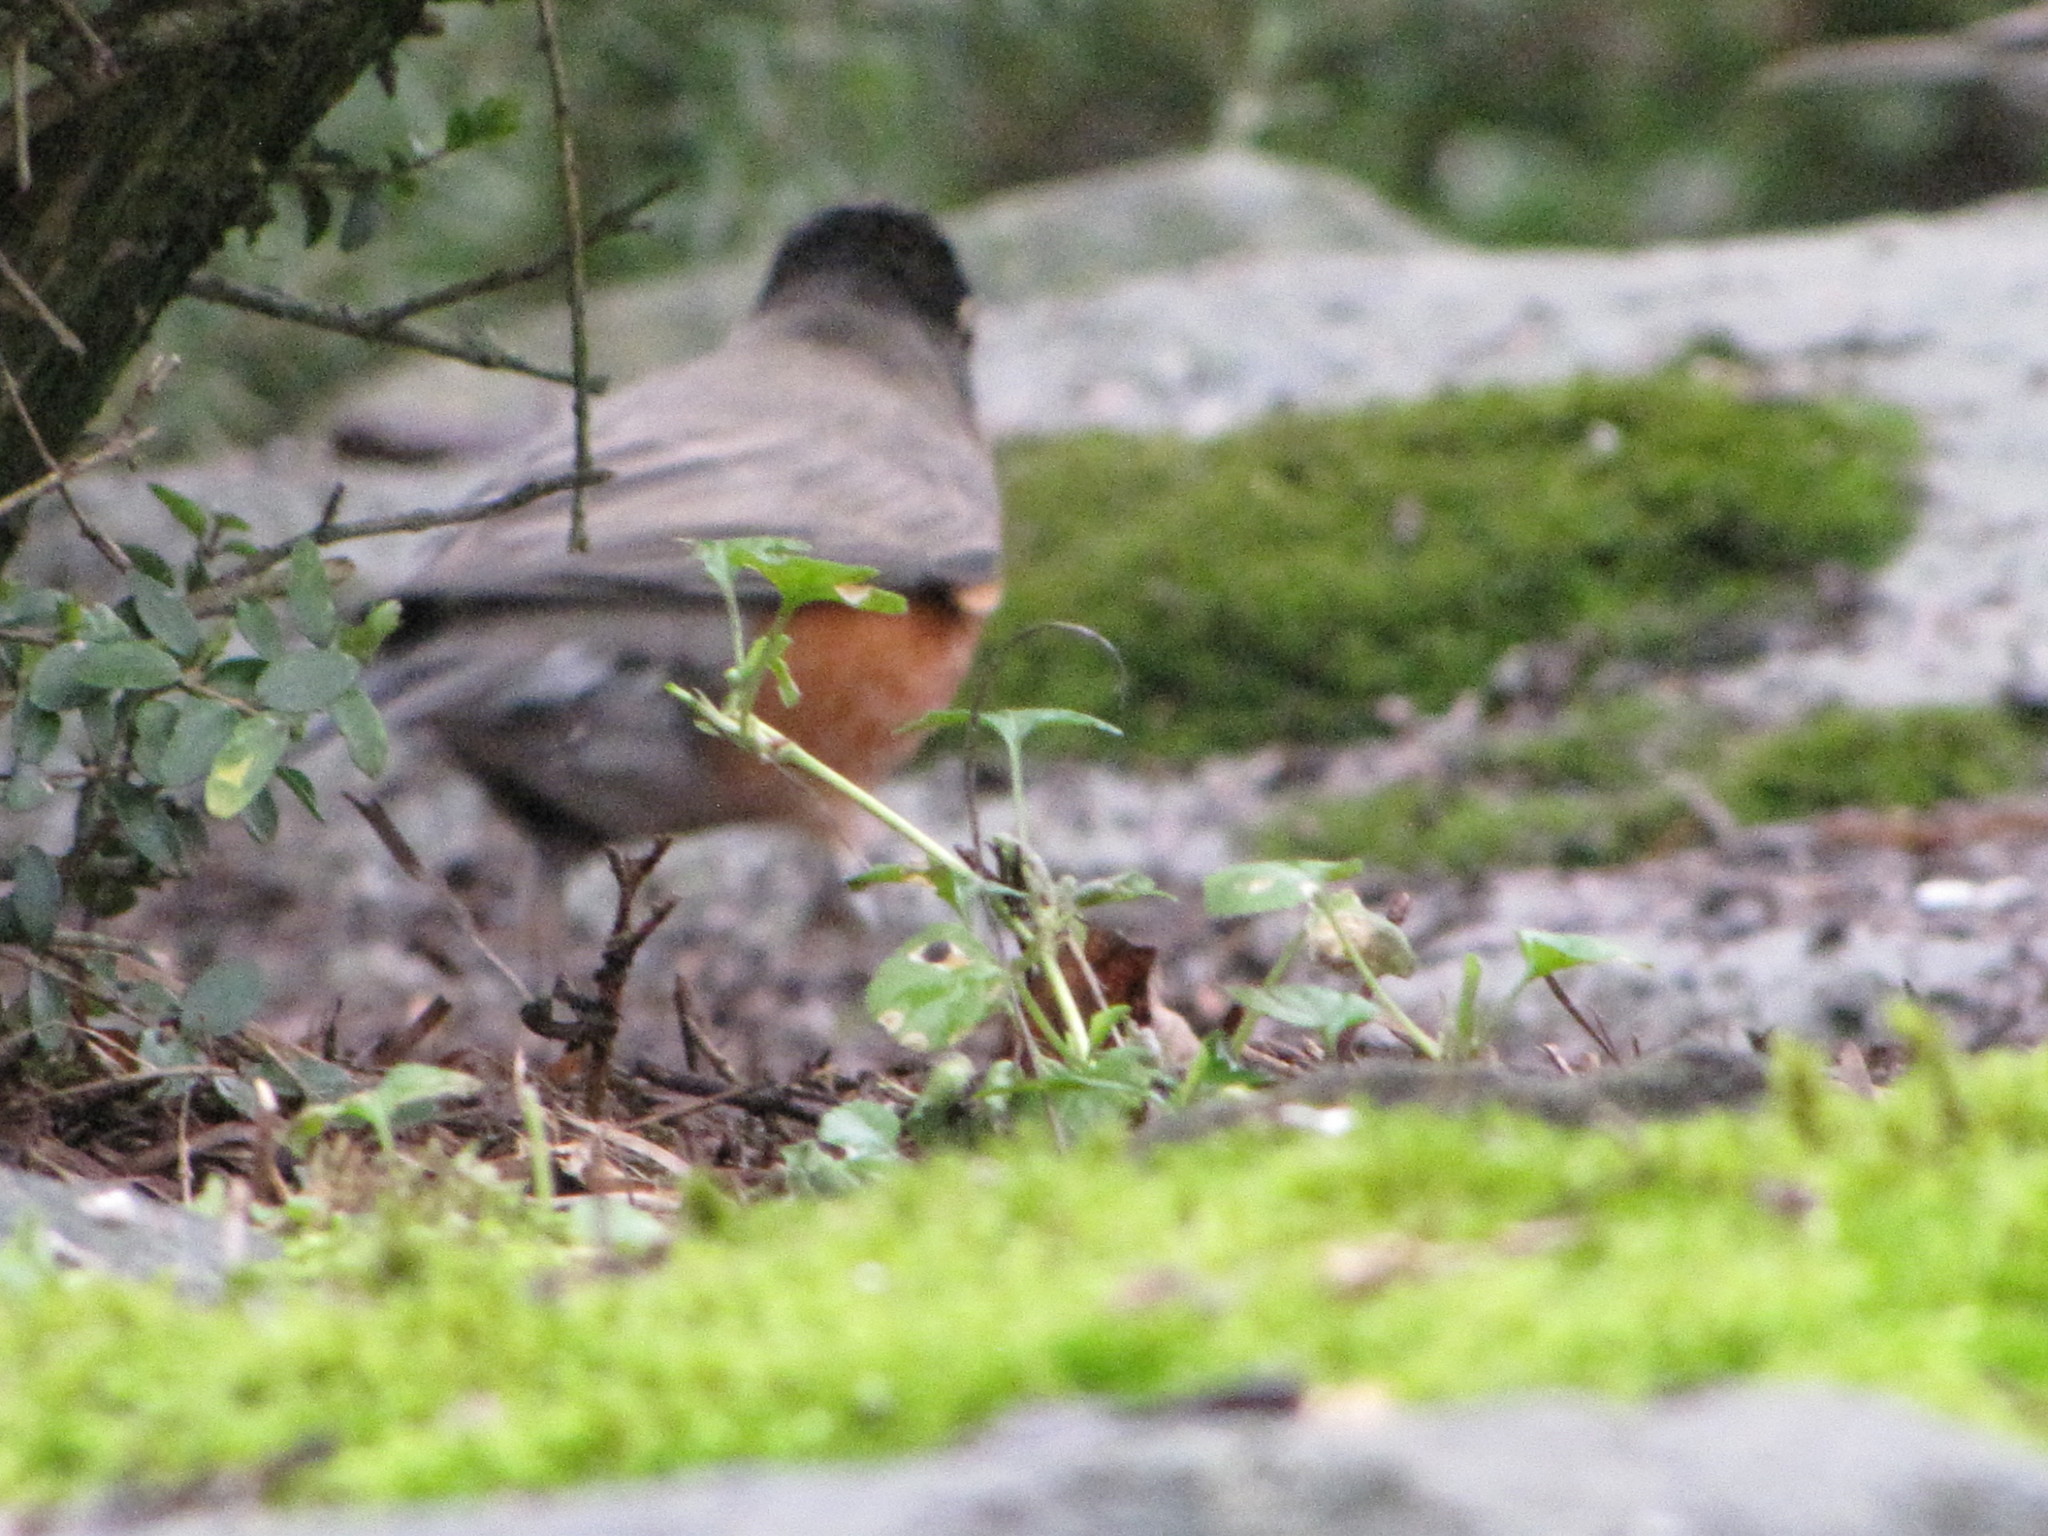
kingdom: Animalia
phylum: Chordata
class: Aves
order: Passeriformes
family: Turdidae
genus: Turdus
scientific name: Turdus migratorius
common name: American robin
